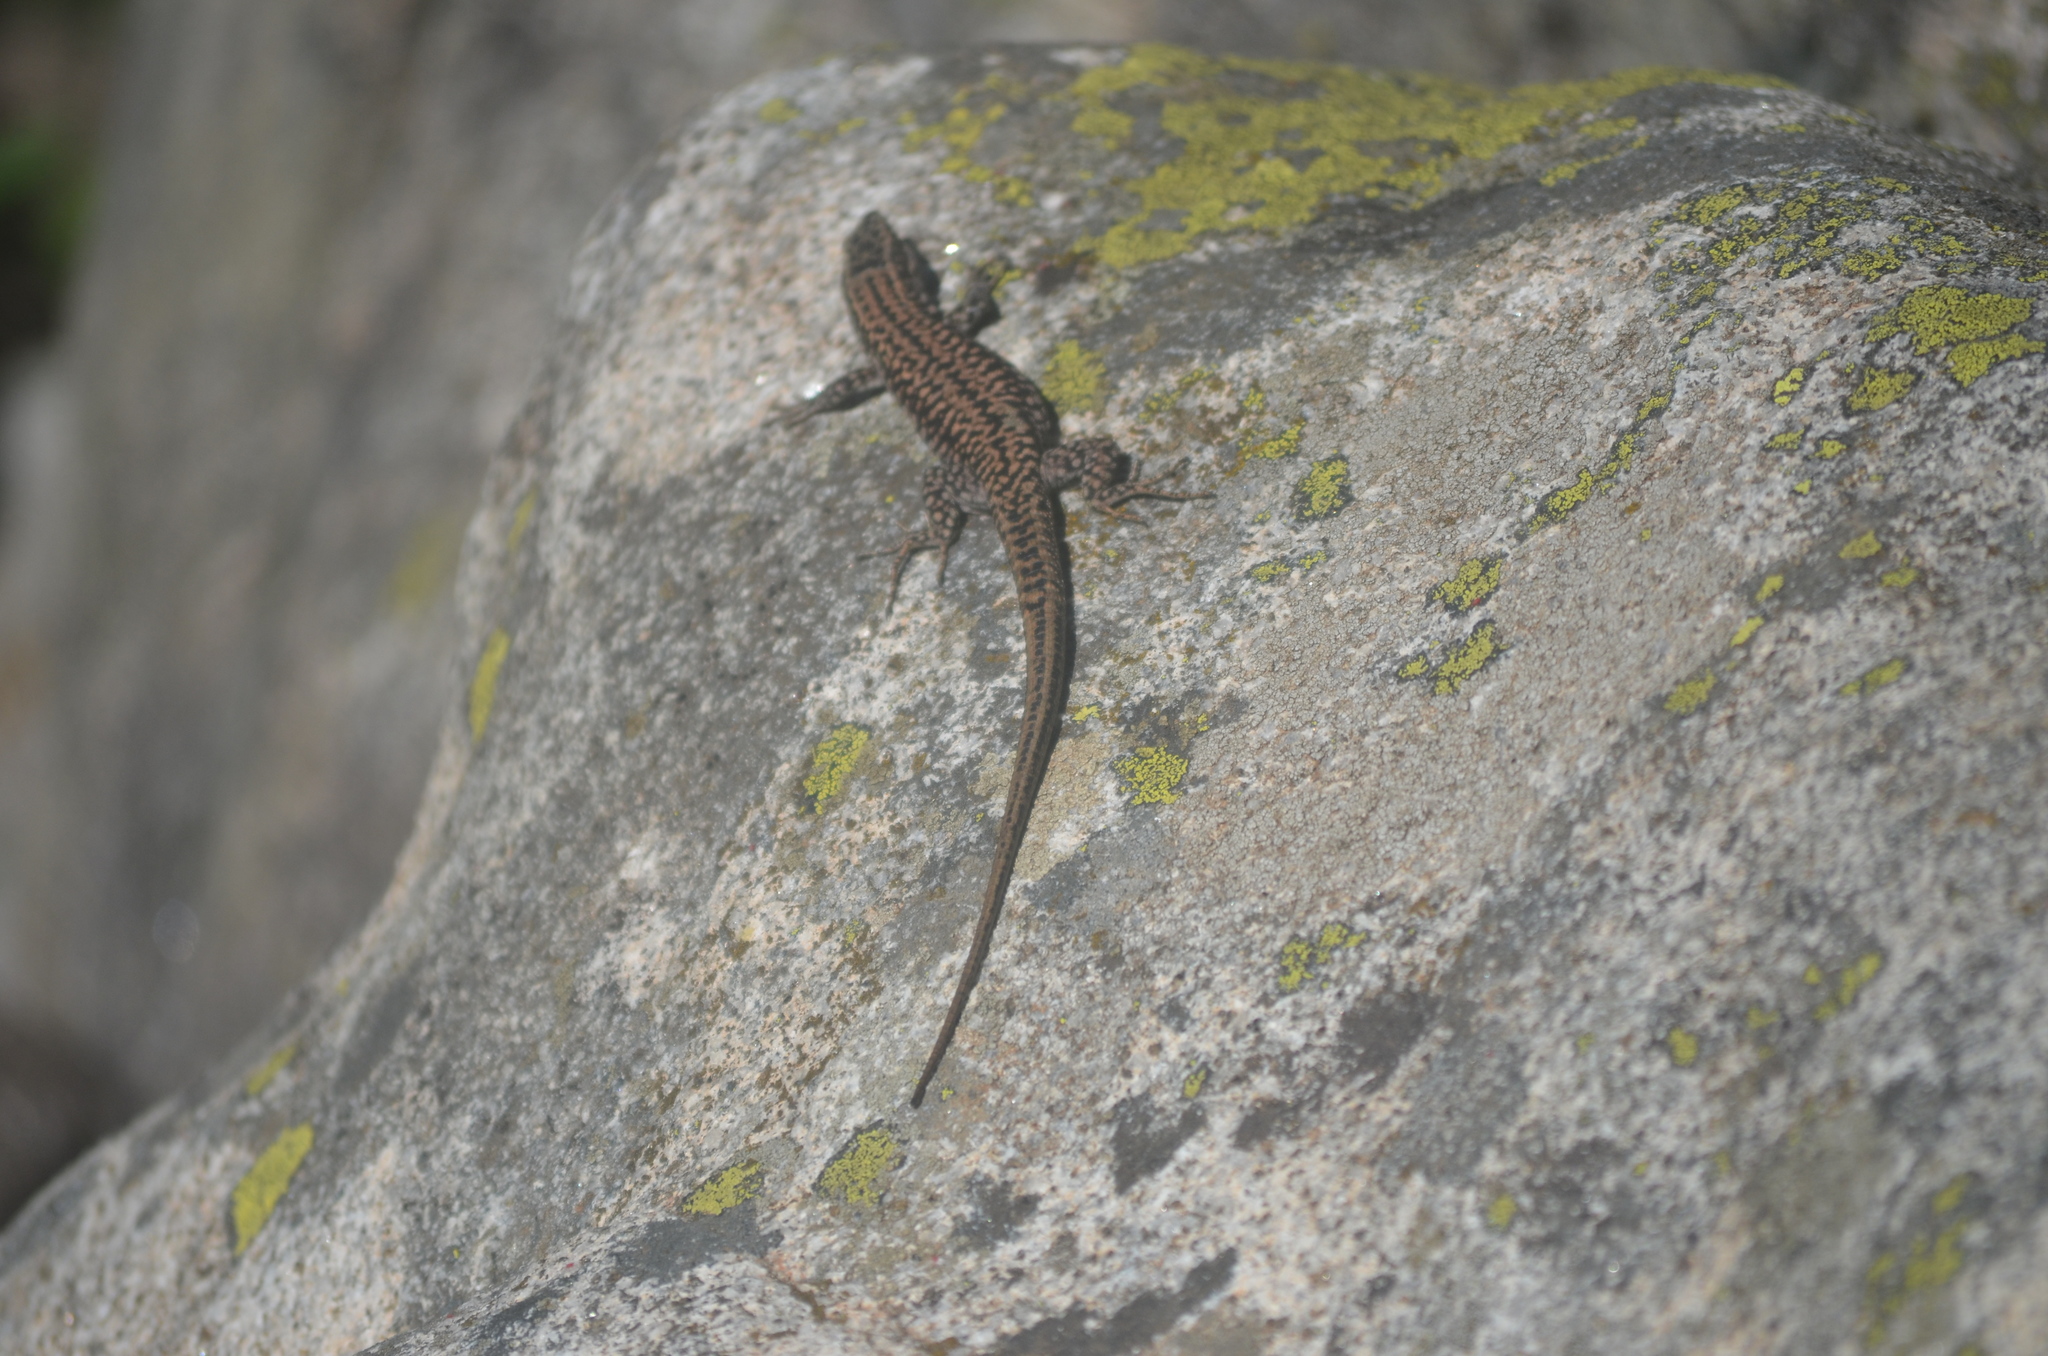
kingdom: Animalia
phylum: Chordata
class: Squamata
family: Lacertidae
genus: Podarcis
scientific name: Podarcis muralis
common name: Common wall lizard
